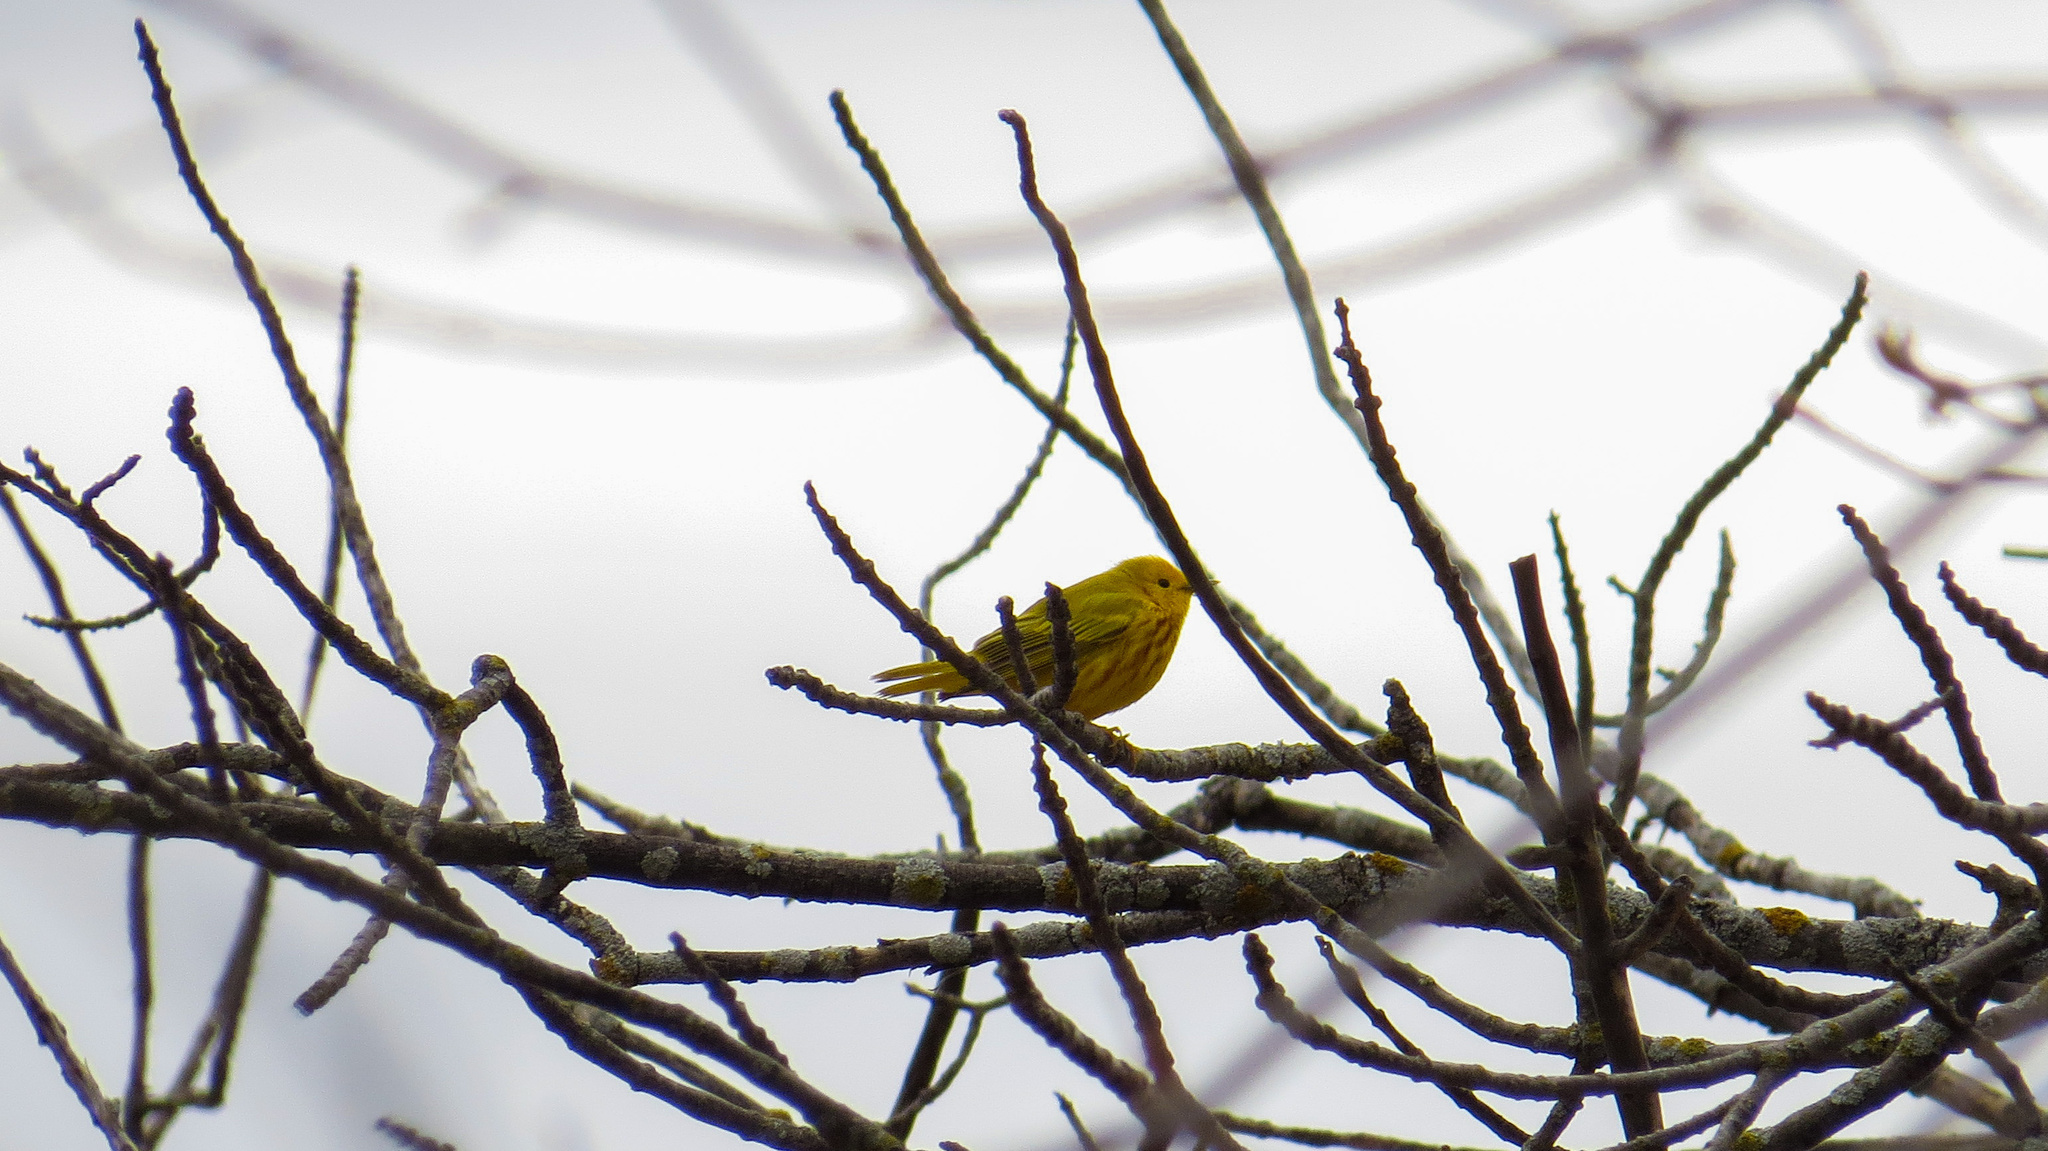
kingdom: Animalia
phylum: Chordata
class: Aves
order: Passeriformes
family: Parulidae
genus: Setophaga
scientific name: Setophaga petechia
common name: Yellow warbler
